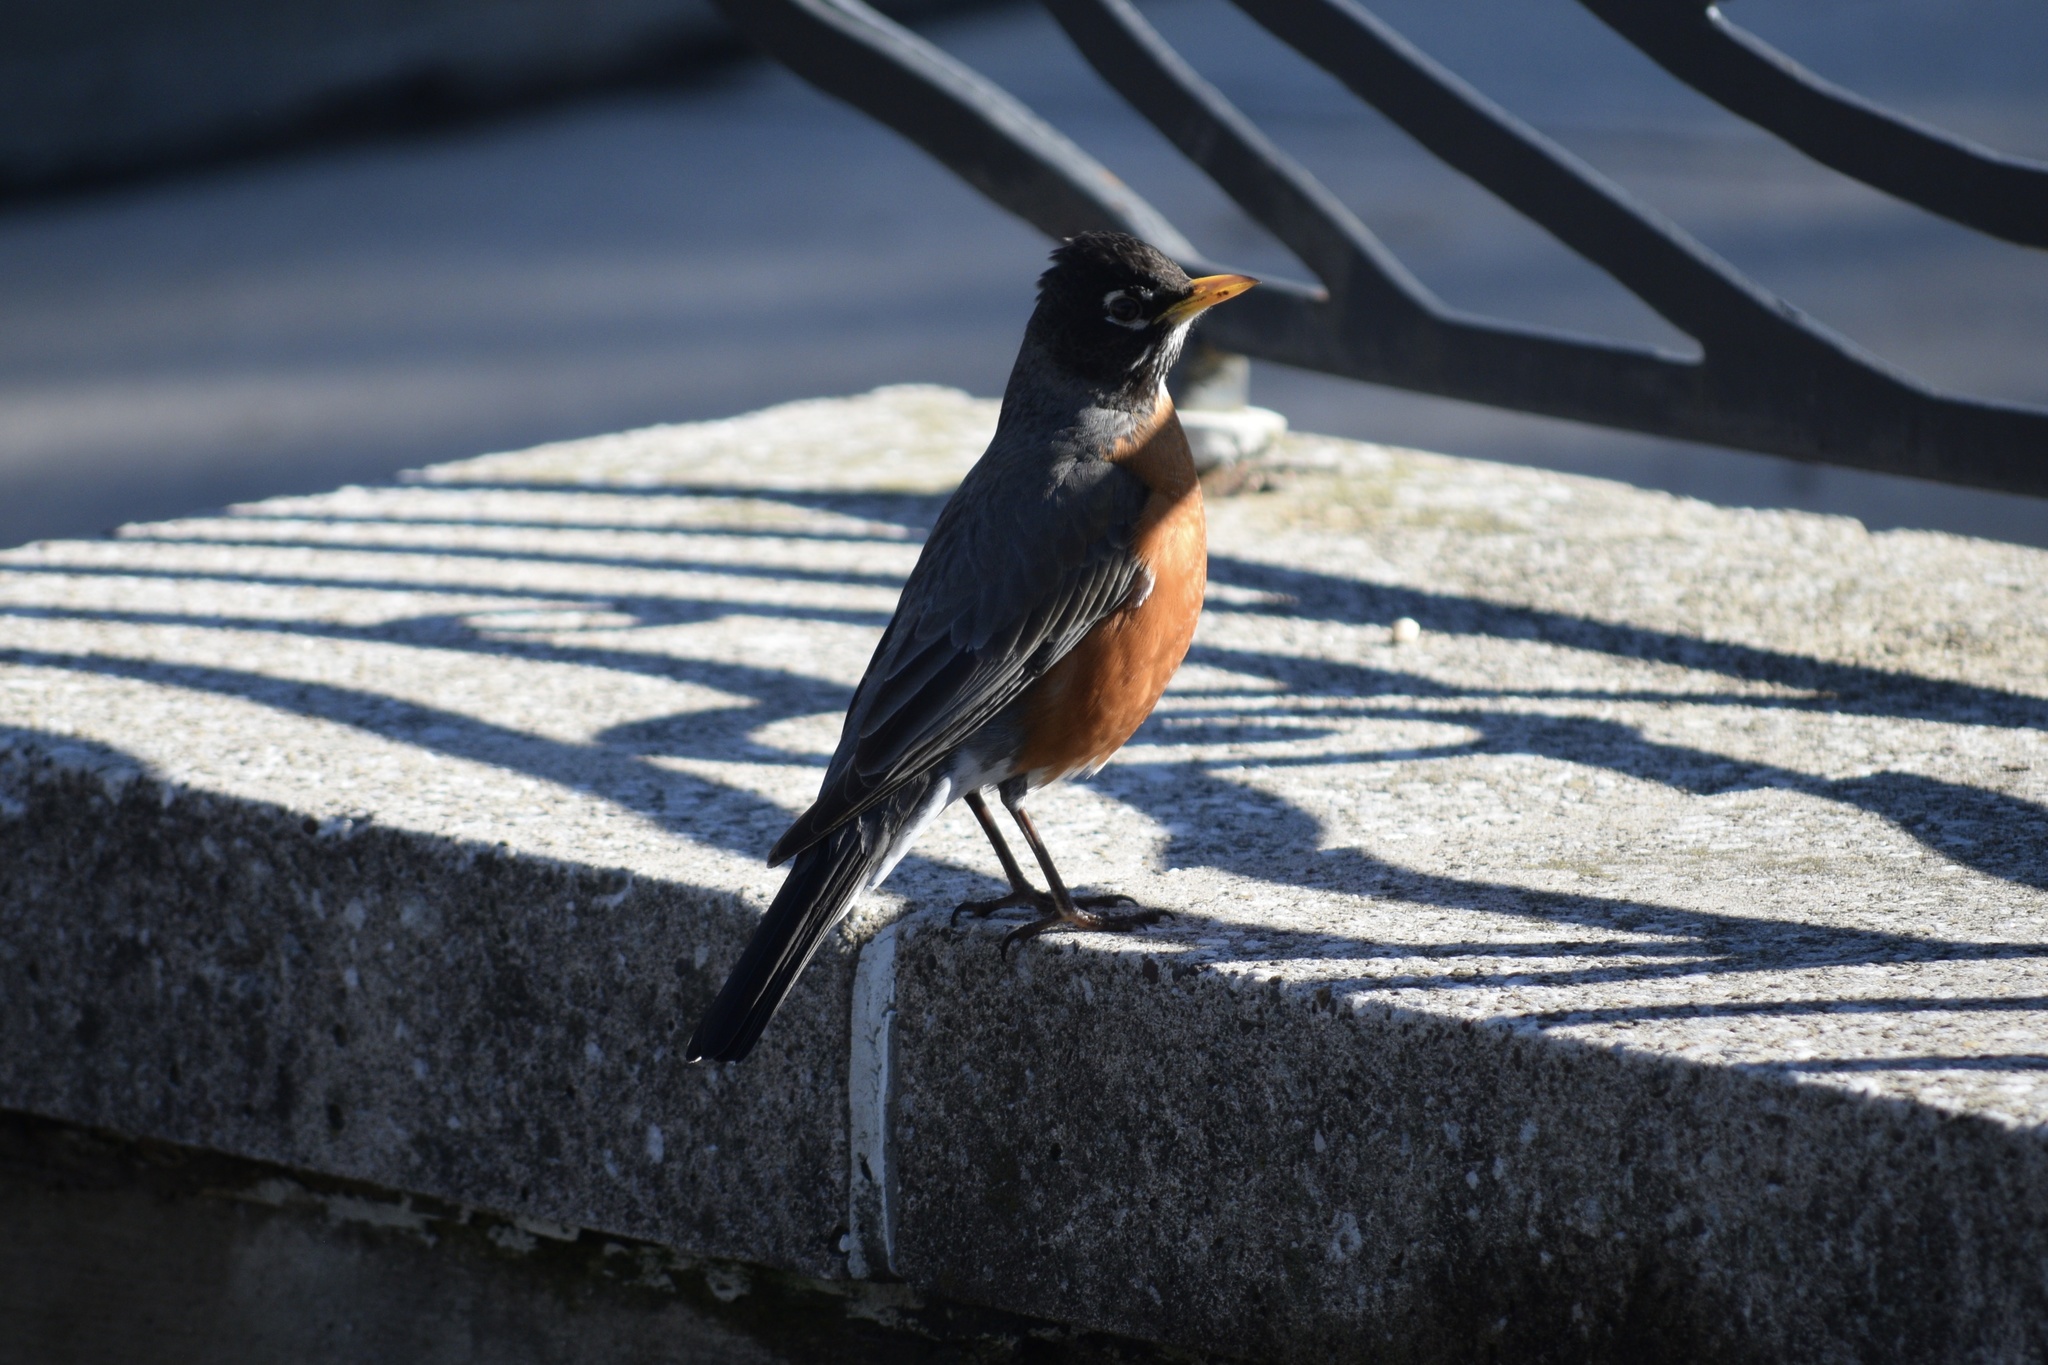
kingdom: Animalia
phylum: Chordata
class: Aves
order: Passeriformes
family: Turdidae
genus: Turdus
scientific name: Turdus migratorius
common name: American robin
